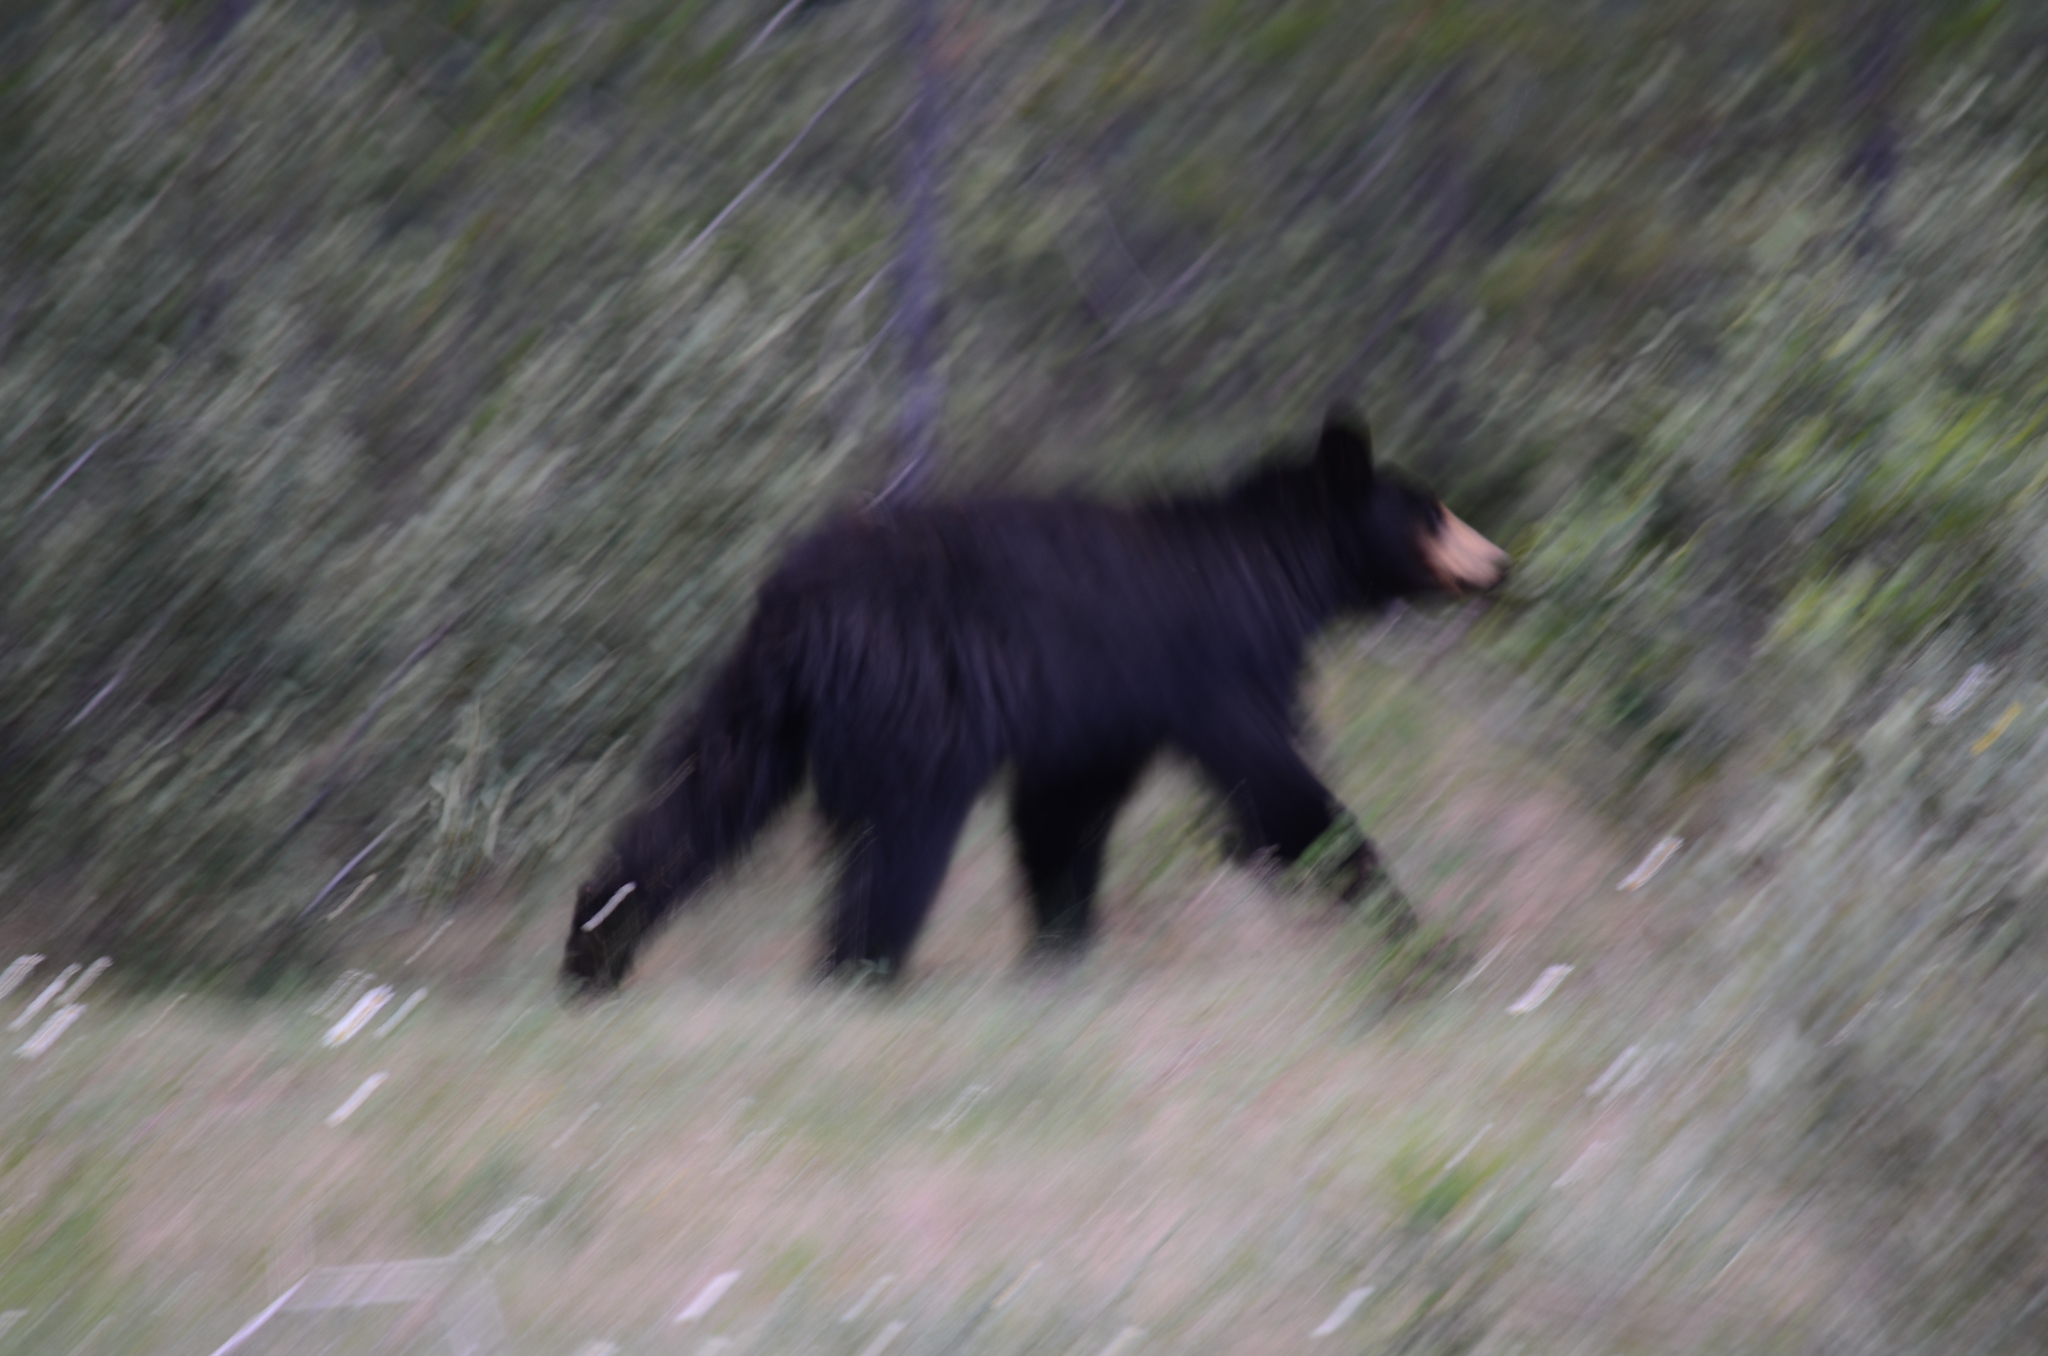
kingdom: Animalia
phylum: Chordata
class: Mammalia
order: Carnivora
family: Ursidae
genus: Ursus
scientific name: Ursus americanus
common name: American black bear
